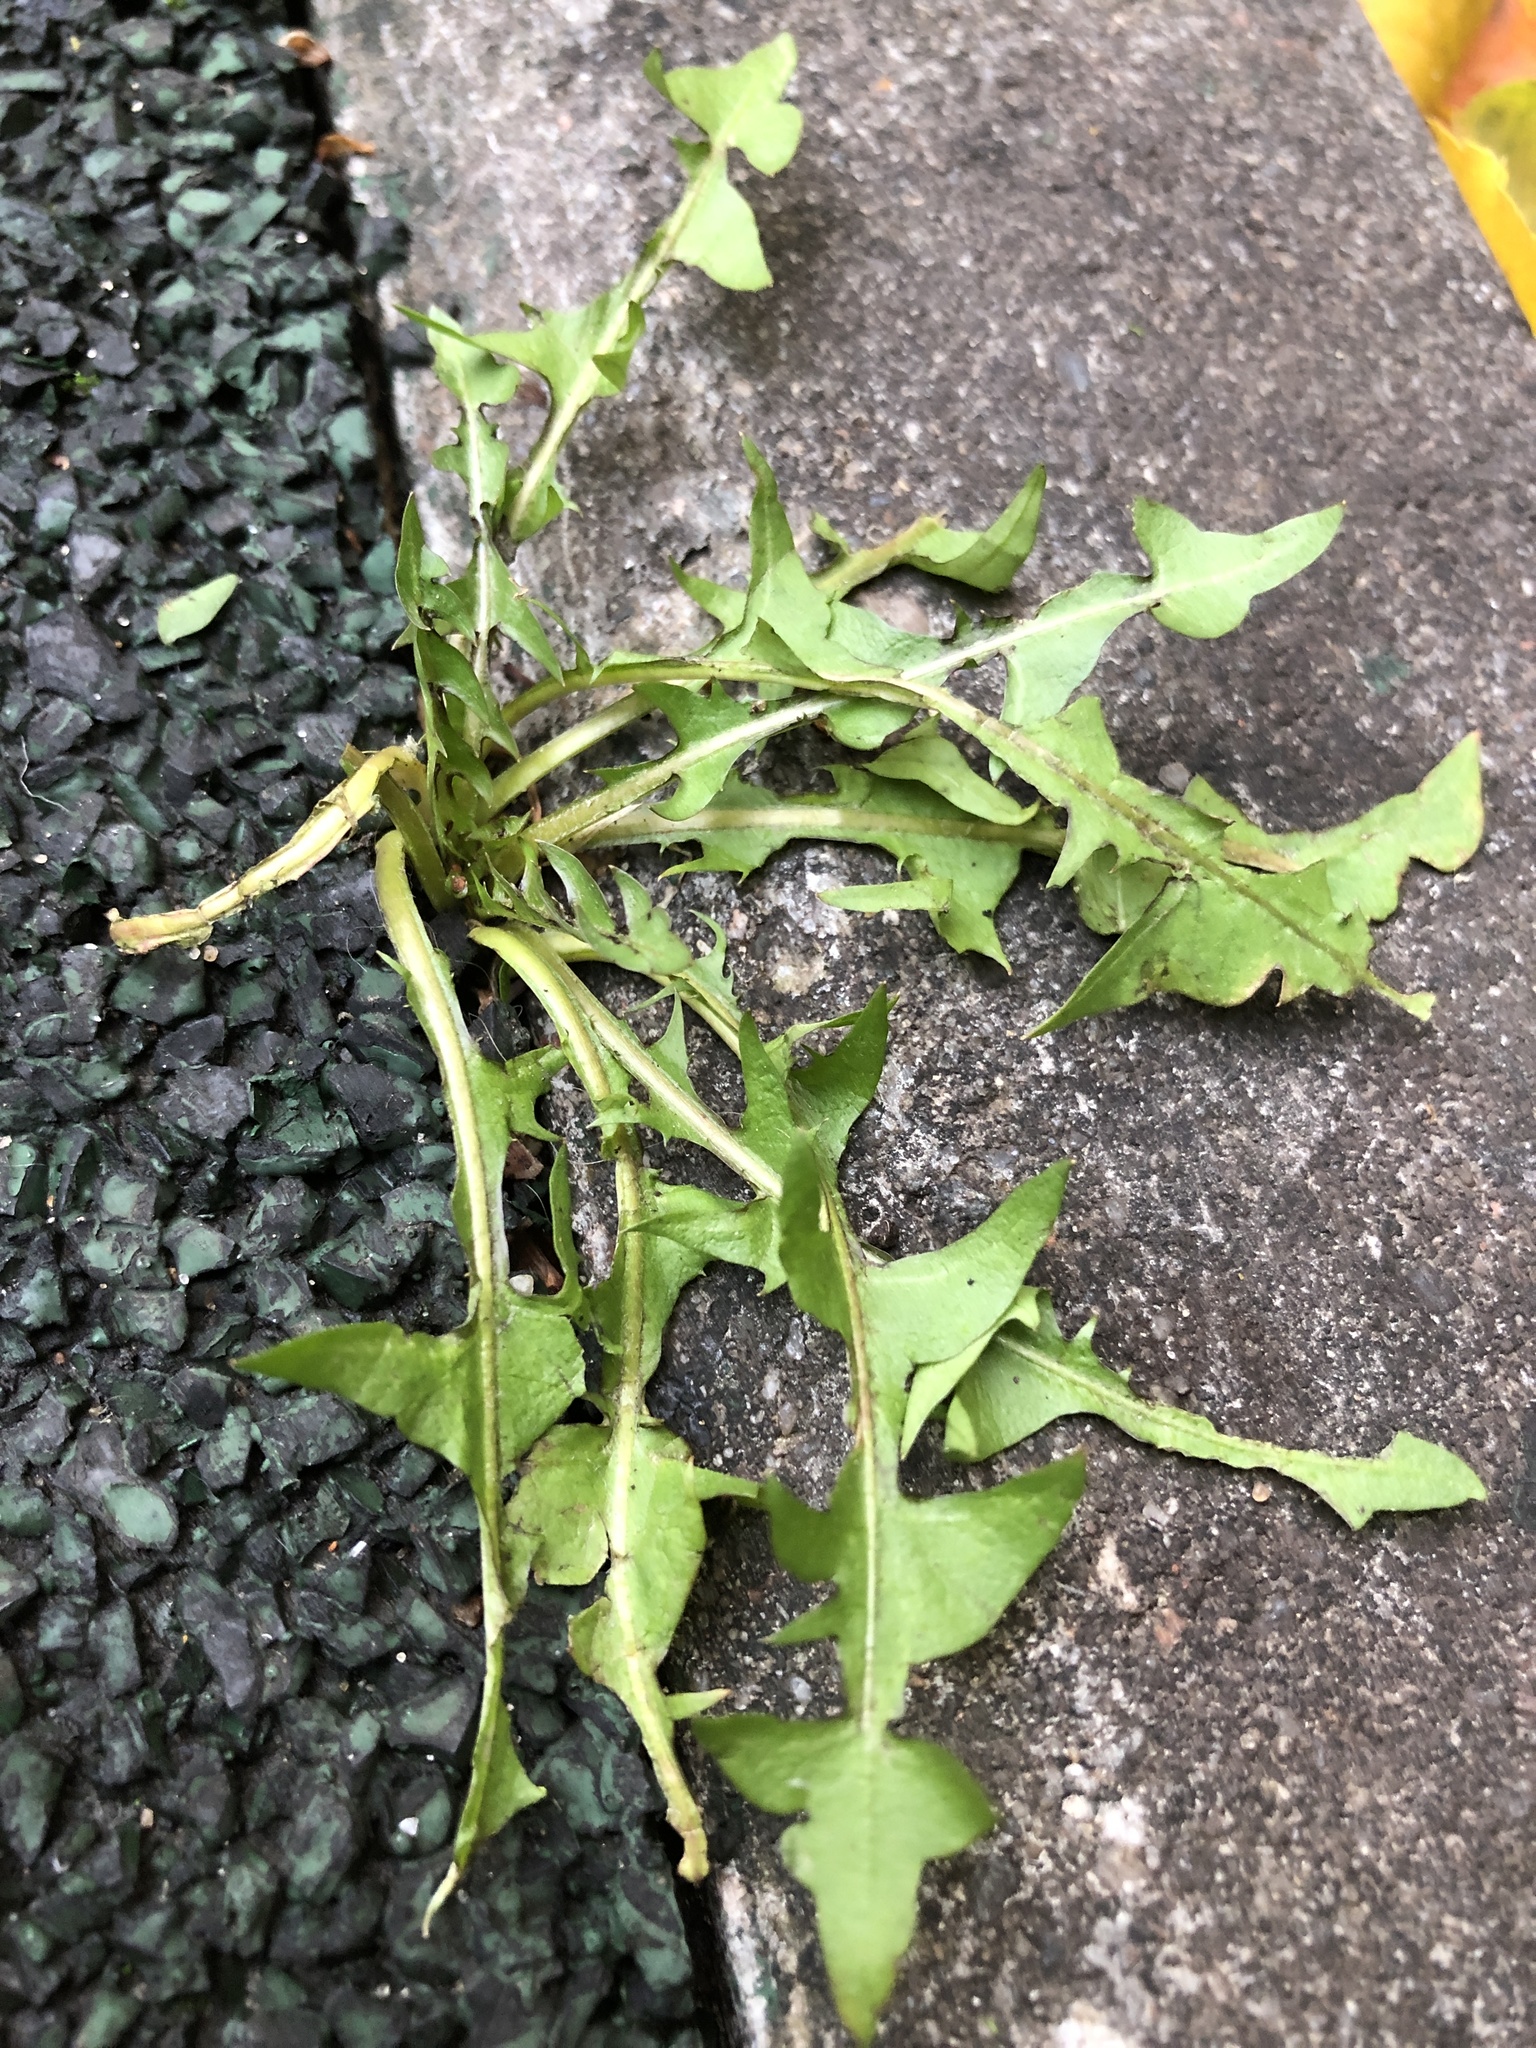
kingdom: Plantae
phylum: Tracheophyta
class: Magnoliopsida
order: Asterales
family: Asteraceae
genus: Taraxacum
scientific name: Taraxacum officinale
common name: Common dandelion
